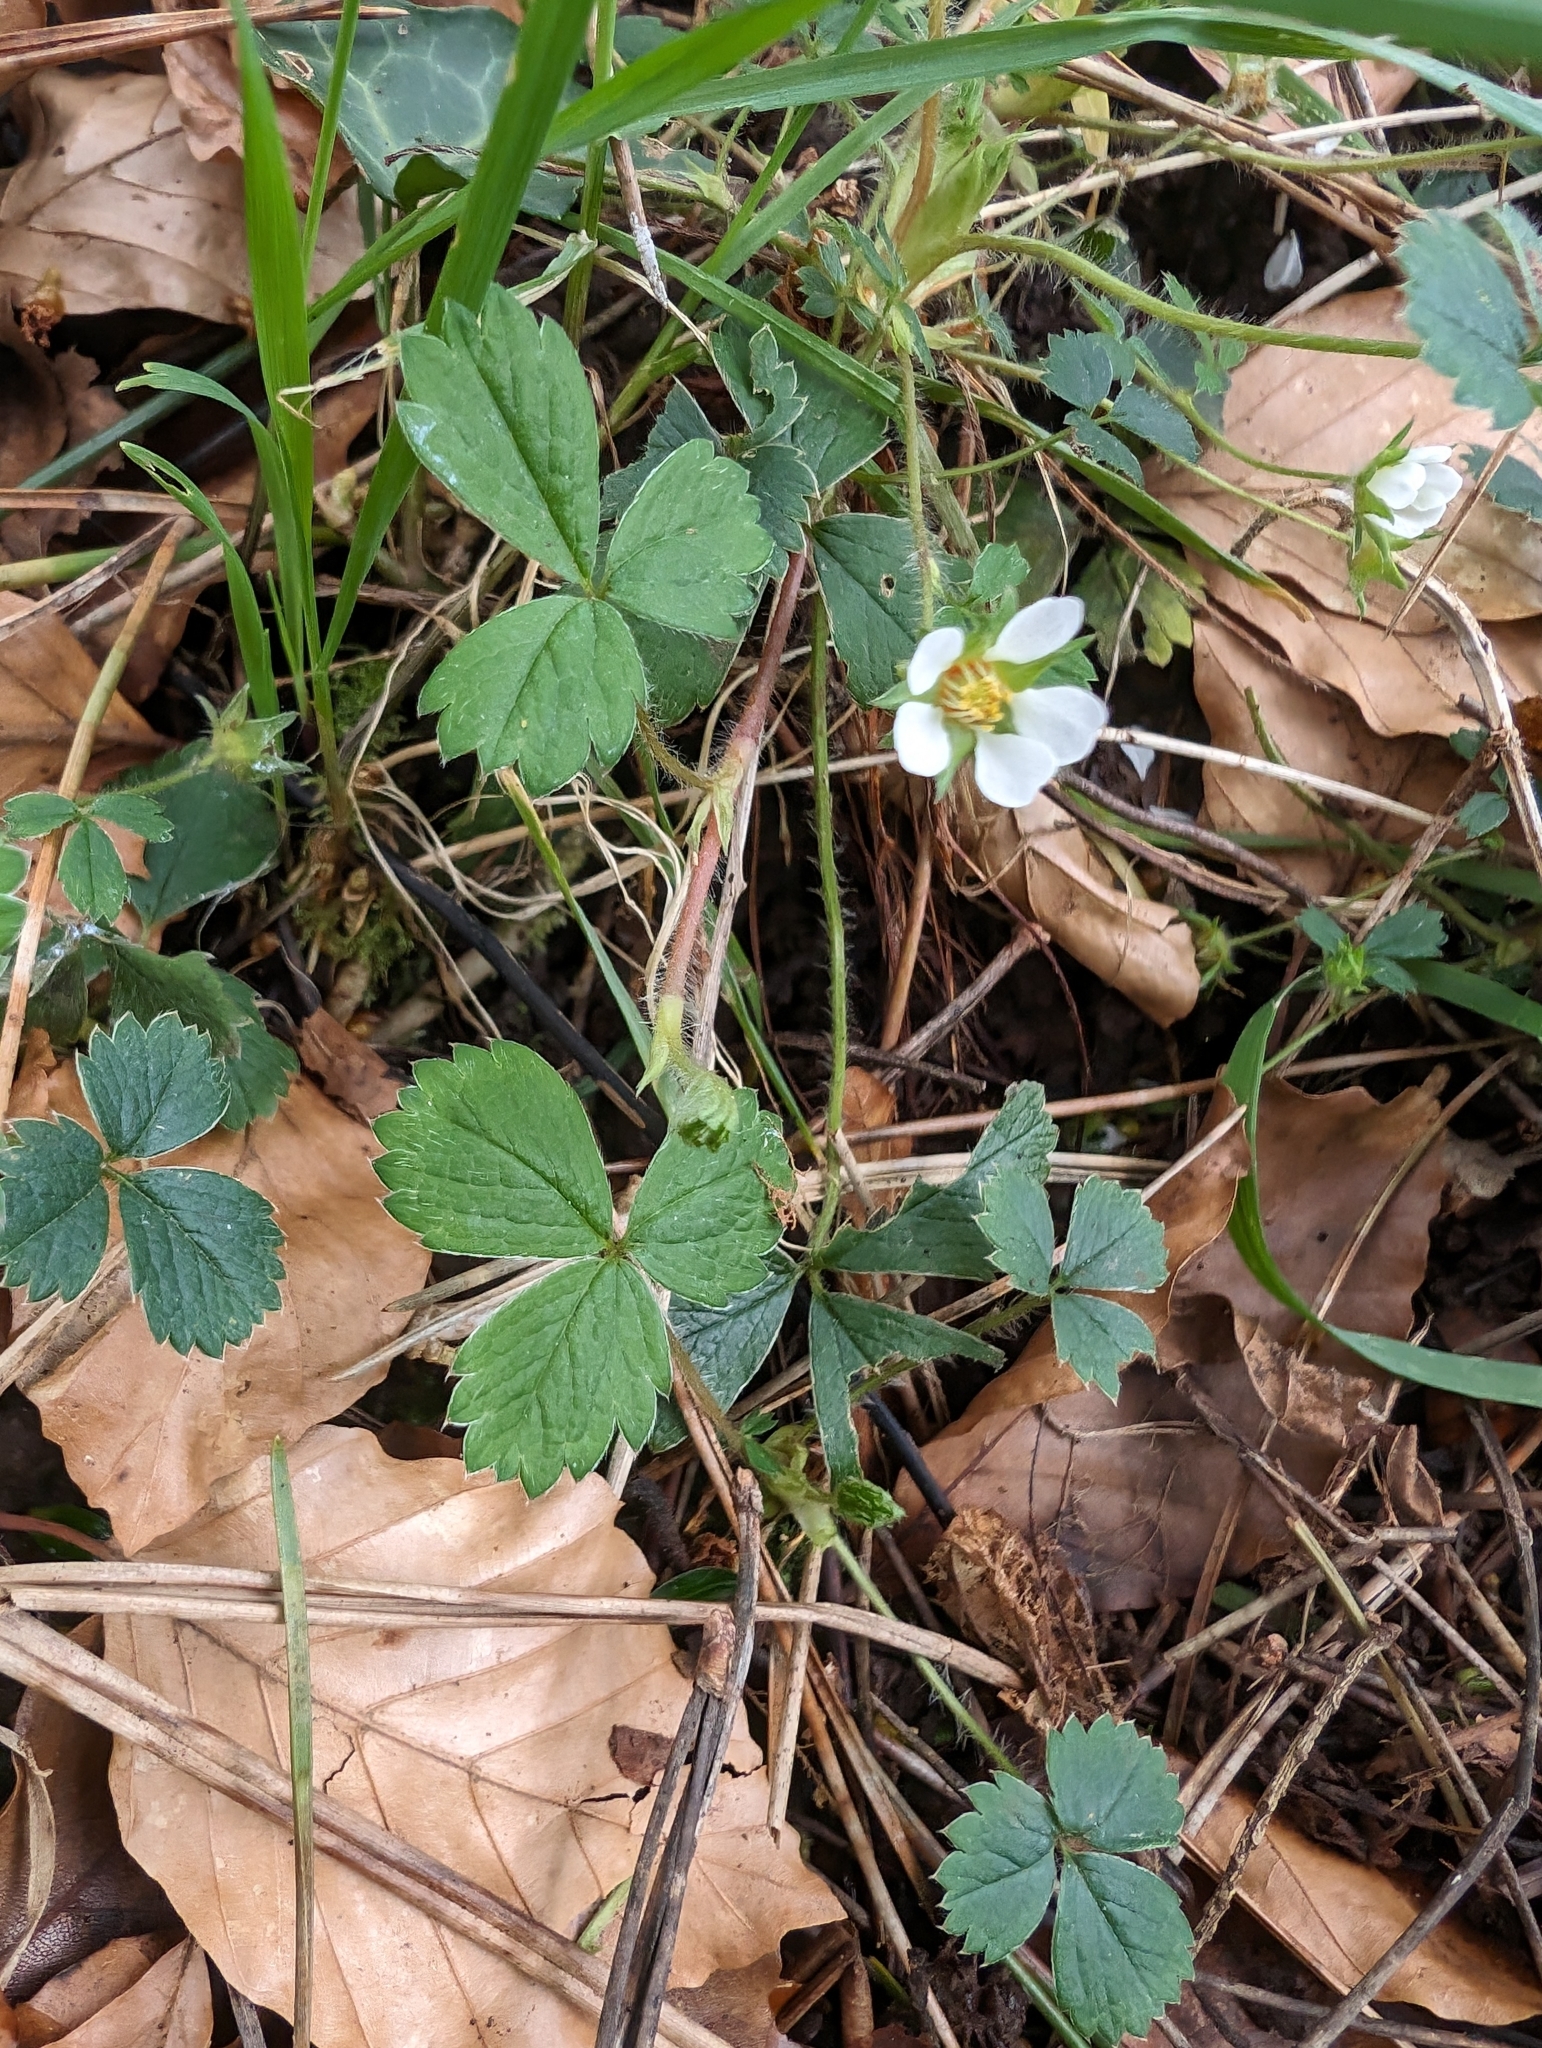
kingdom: Plantae
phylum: Tracheophyta
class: Magnoliopsida
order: Rosales
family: Rosaceae
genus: Potentilla
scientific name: Potentilla sterilis
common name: Barren strawberry
